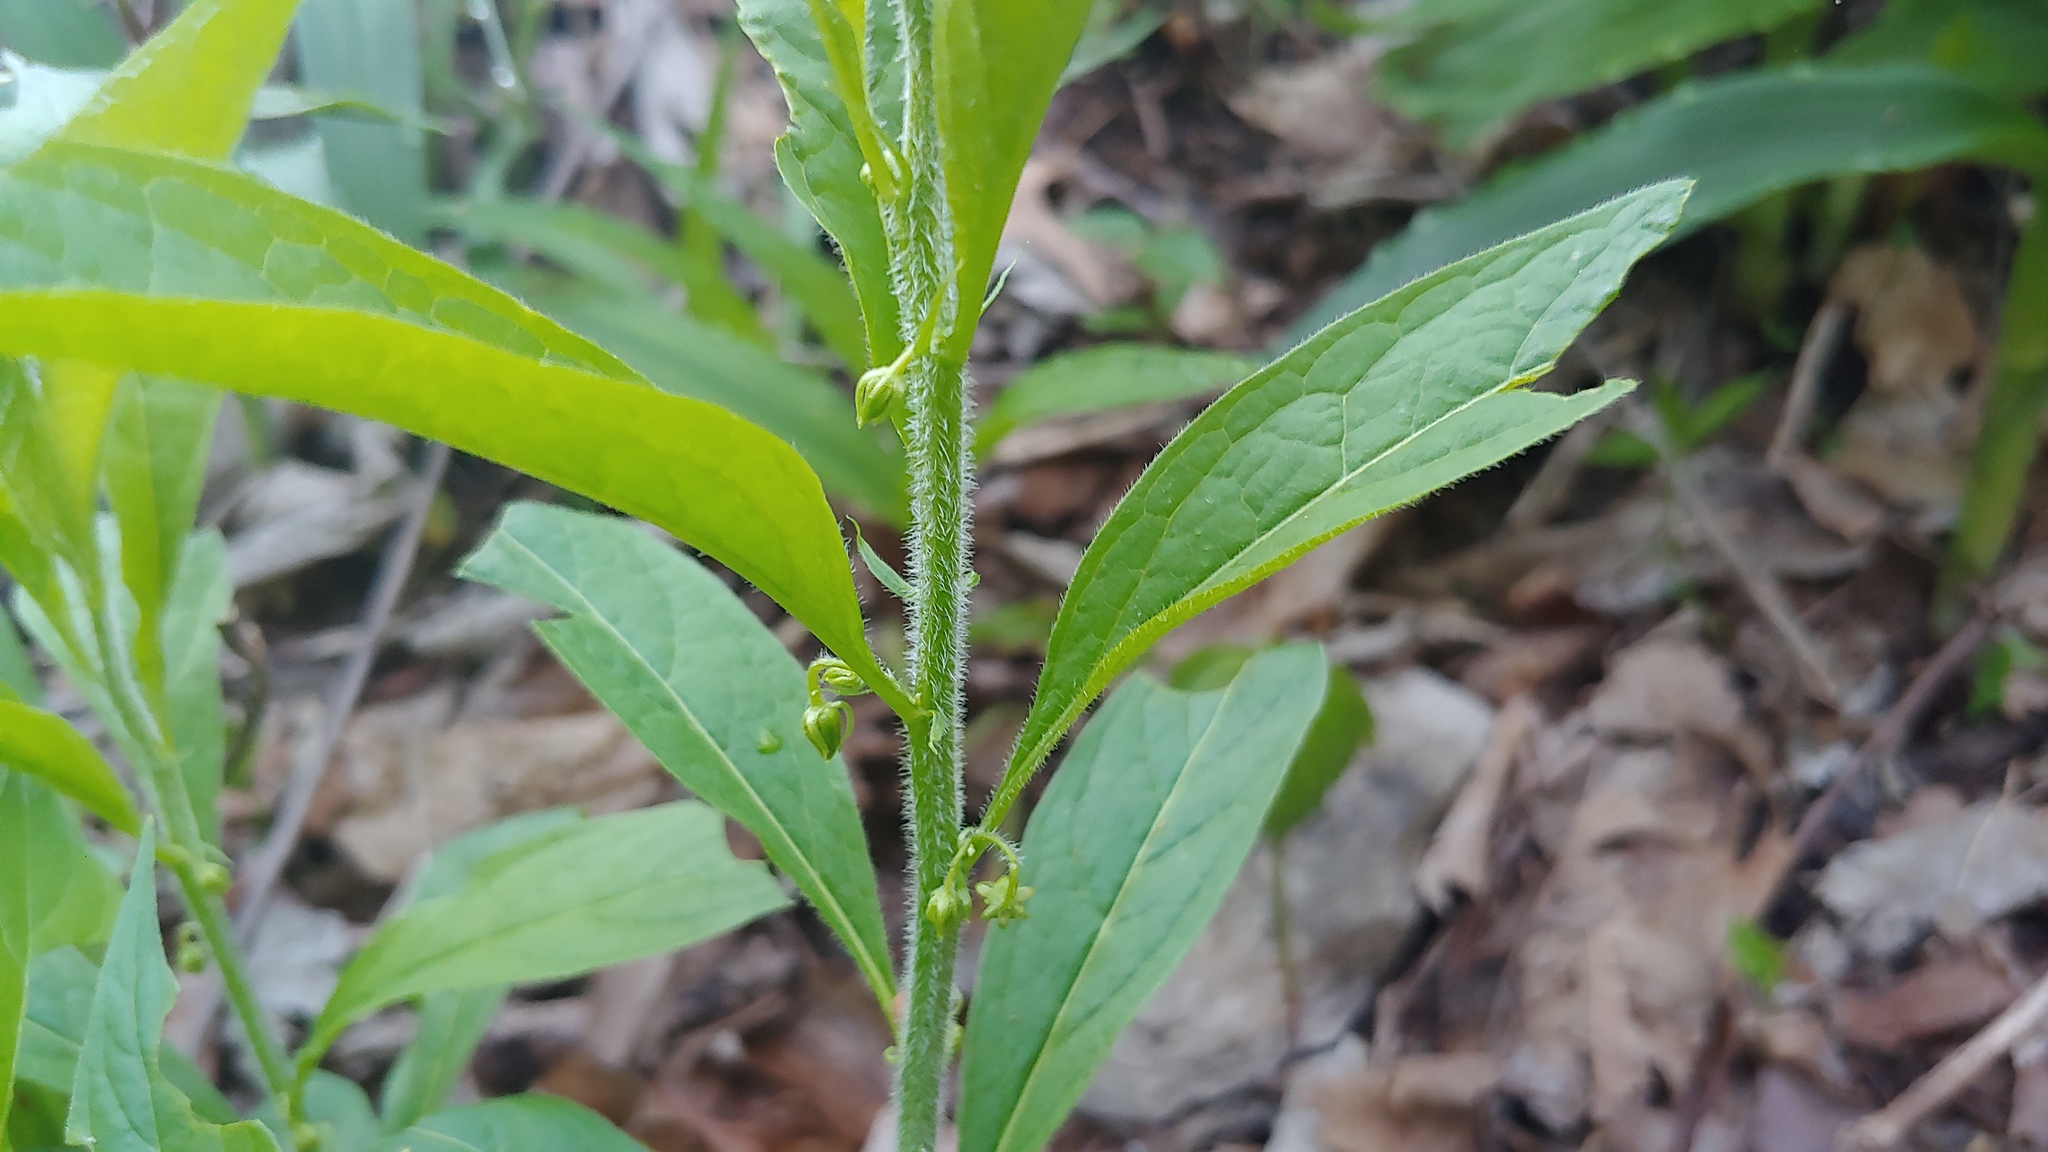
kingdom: Plantae
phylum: Tracheophyta
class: Magnoliopsida
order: Malpighiales
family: Violaceae
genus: Cubelium
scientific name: Cubelium concolor
